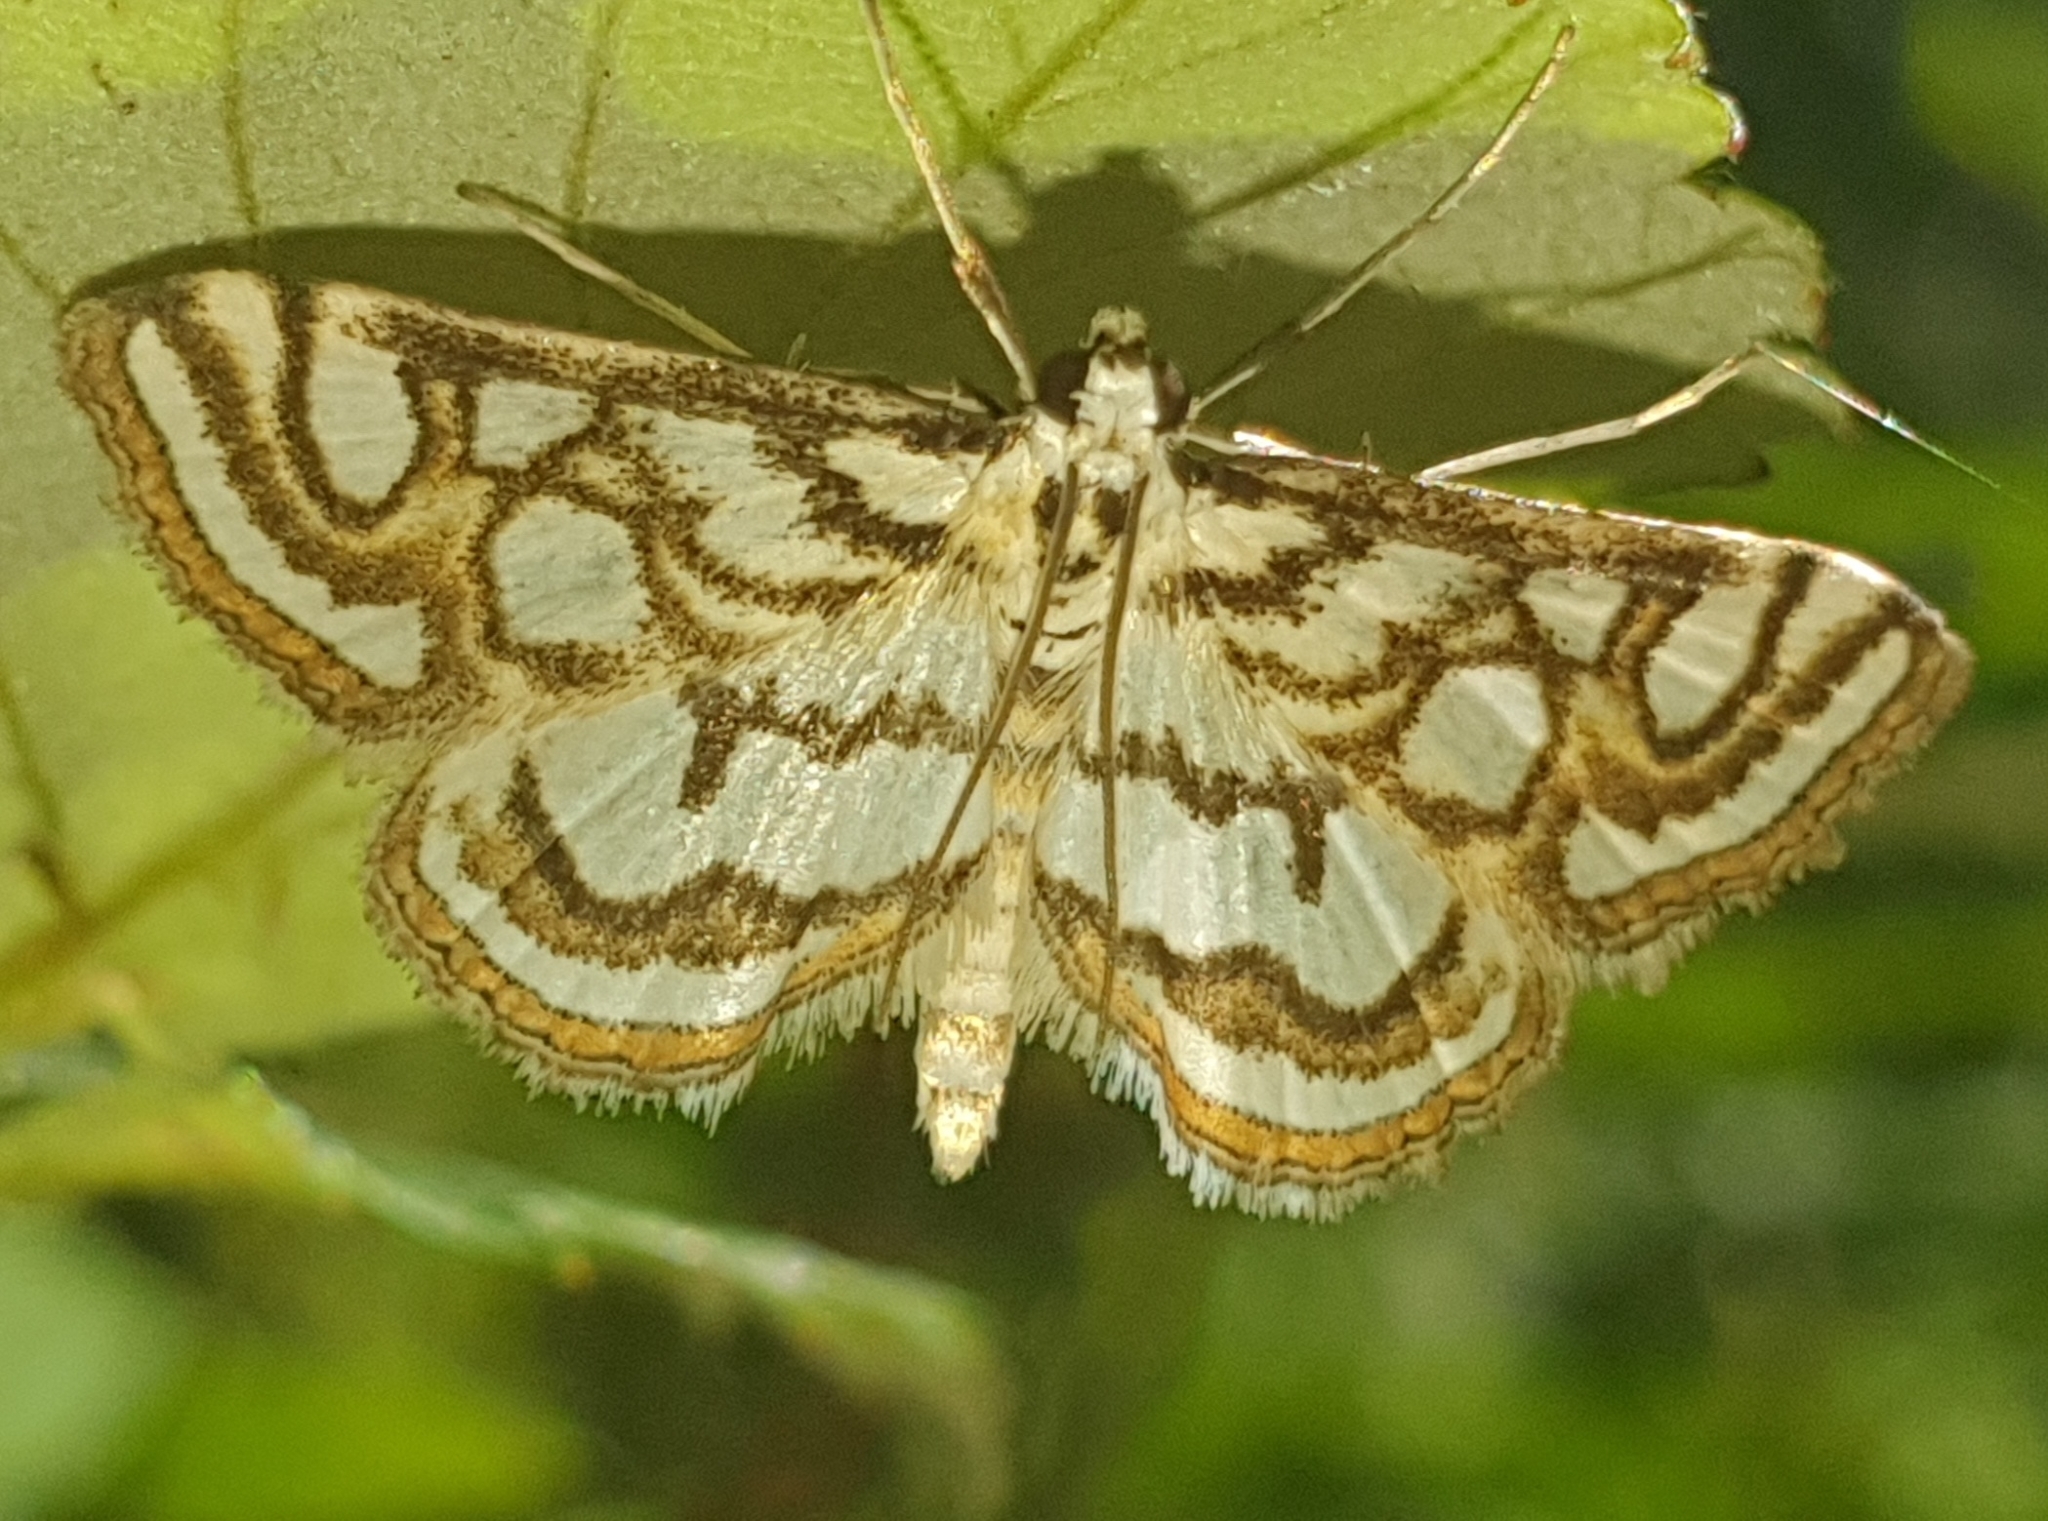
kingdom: Animalia
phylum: Arthropoda
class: Insecta
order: Lepidoptera
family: Crambidae
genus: Nymphula
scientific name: Nymphula nitidulata
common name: Beautiful china mark
